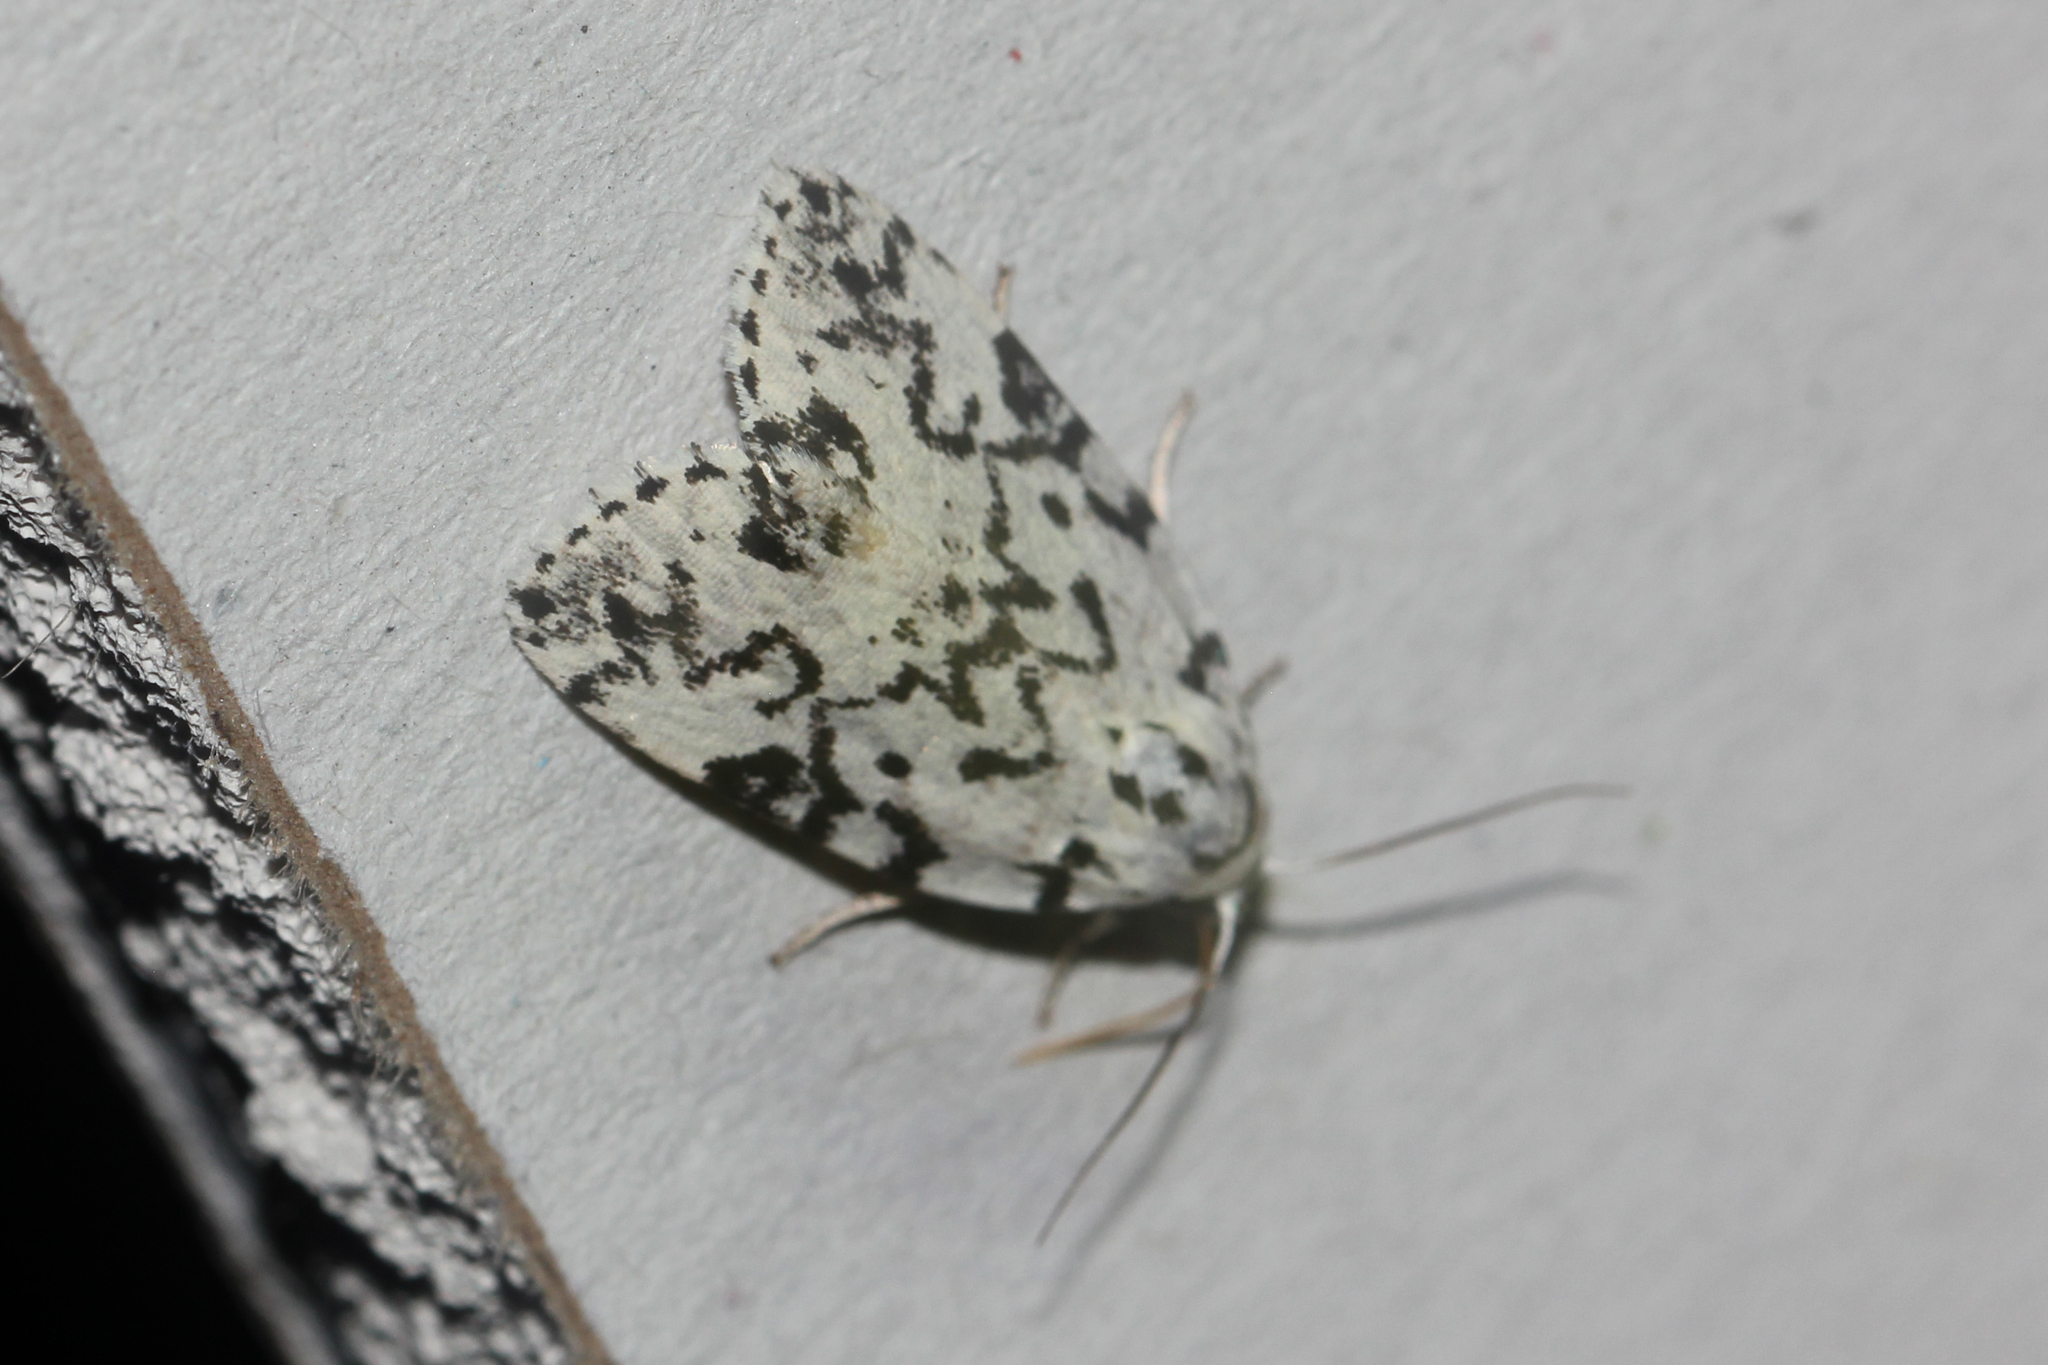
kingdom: Animalia
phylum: Arthropoda
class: Insecta
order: Lepidoptera
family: Noctuidae
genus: Polygrammate
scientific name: Polygrammate hebraeicum
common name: Hebrew moth
